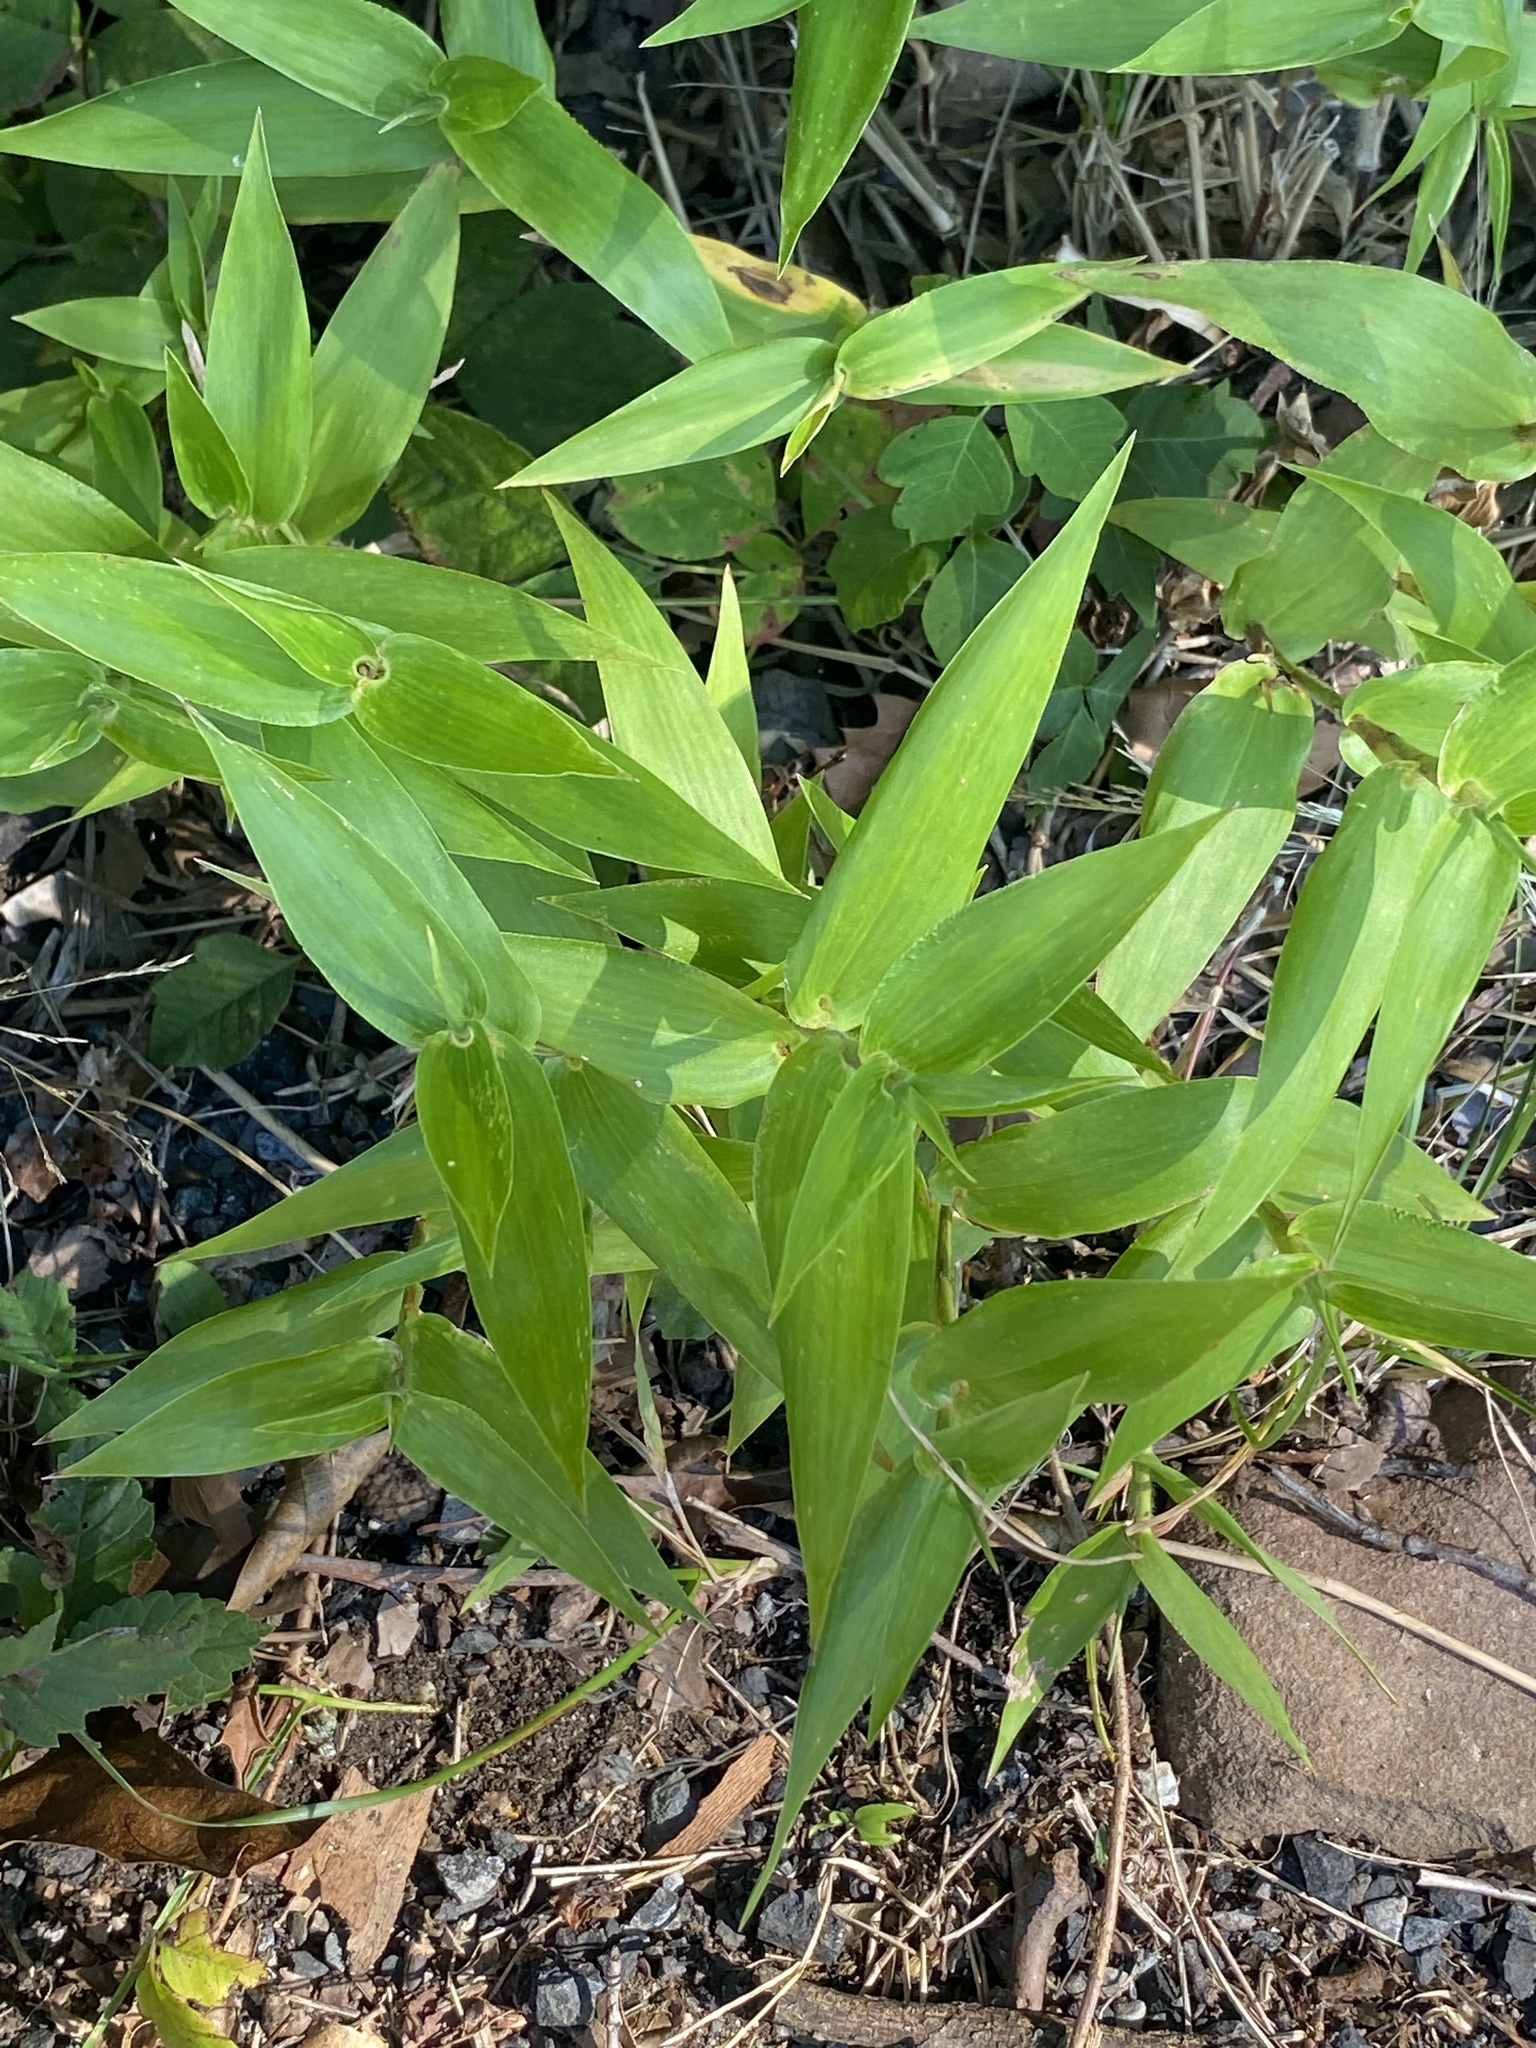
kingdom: Plantae
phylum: Tracheophyta
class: Liliopsida
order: Poales
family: Poaceae
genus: Dichanthelium
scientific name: Dichanthelium clandestinum
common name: Deer-tongue grass
